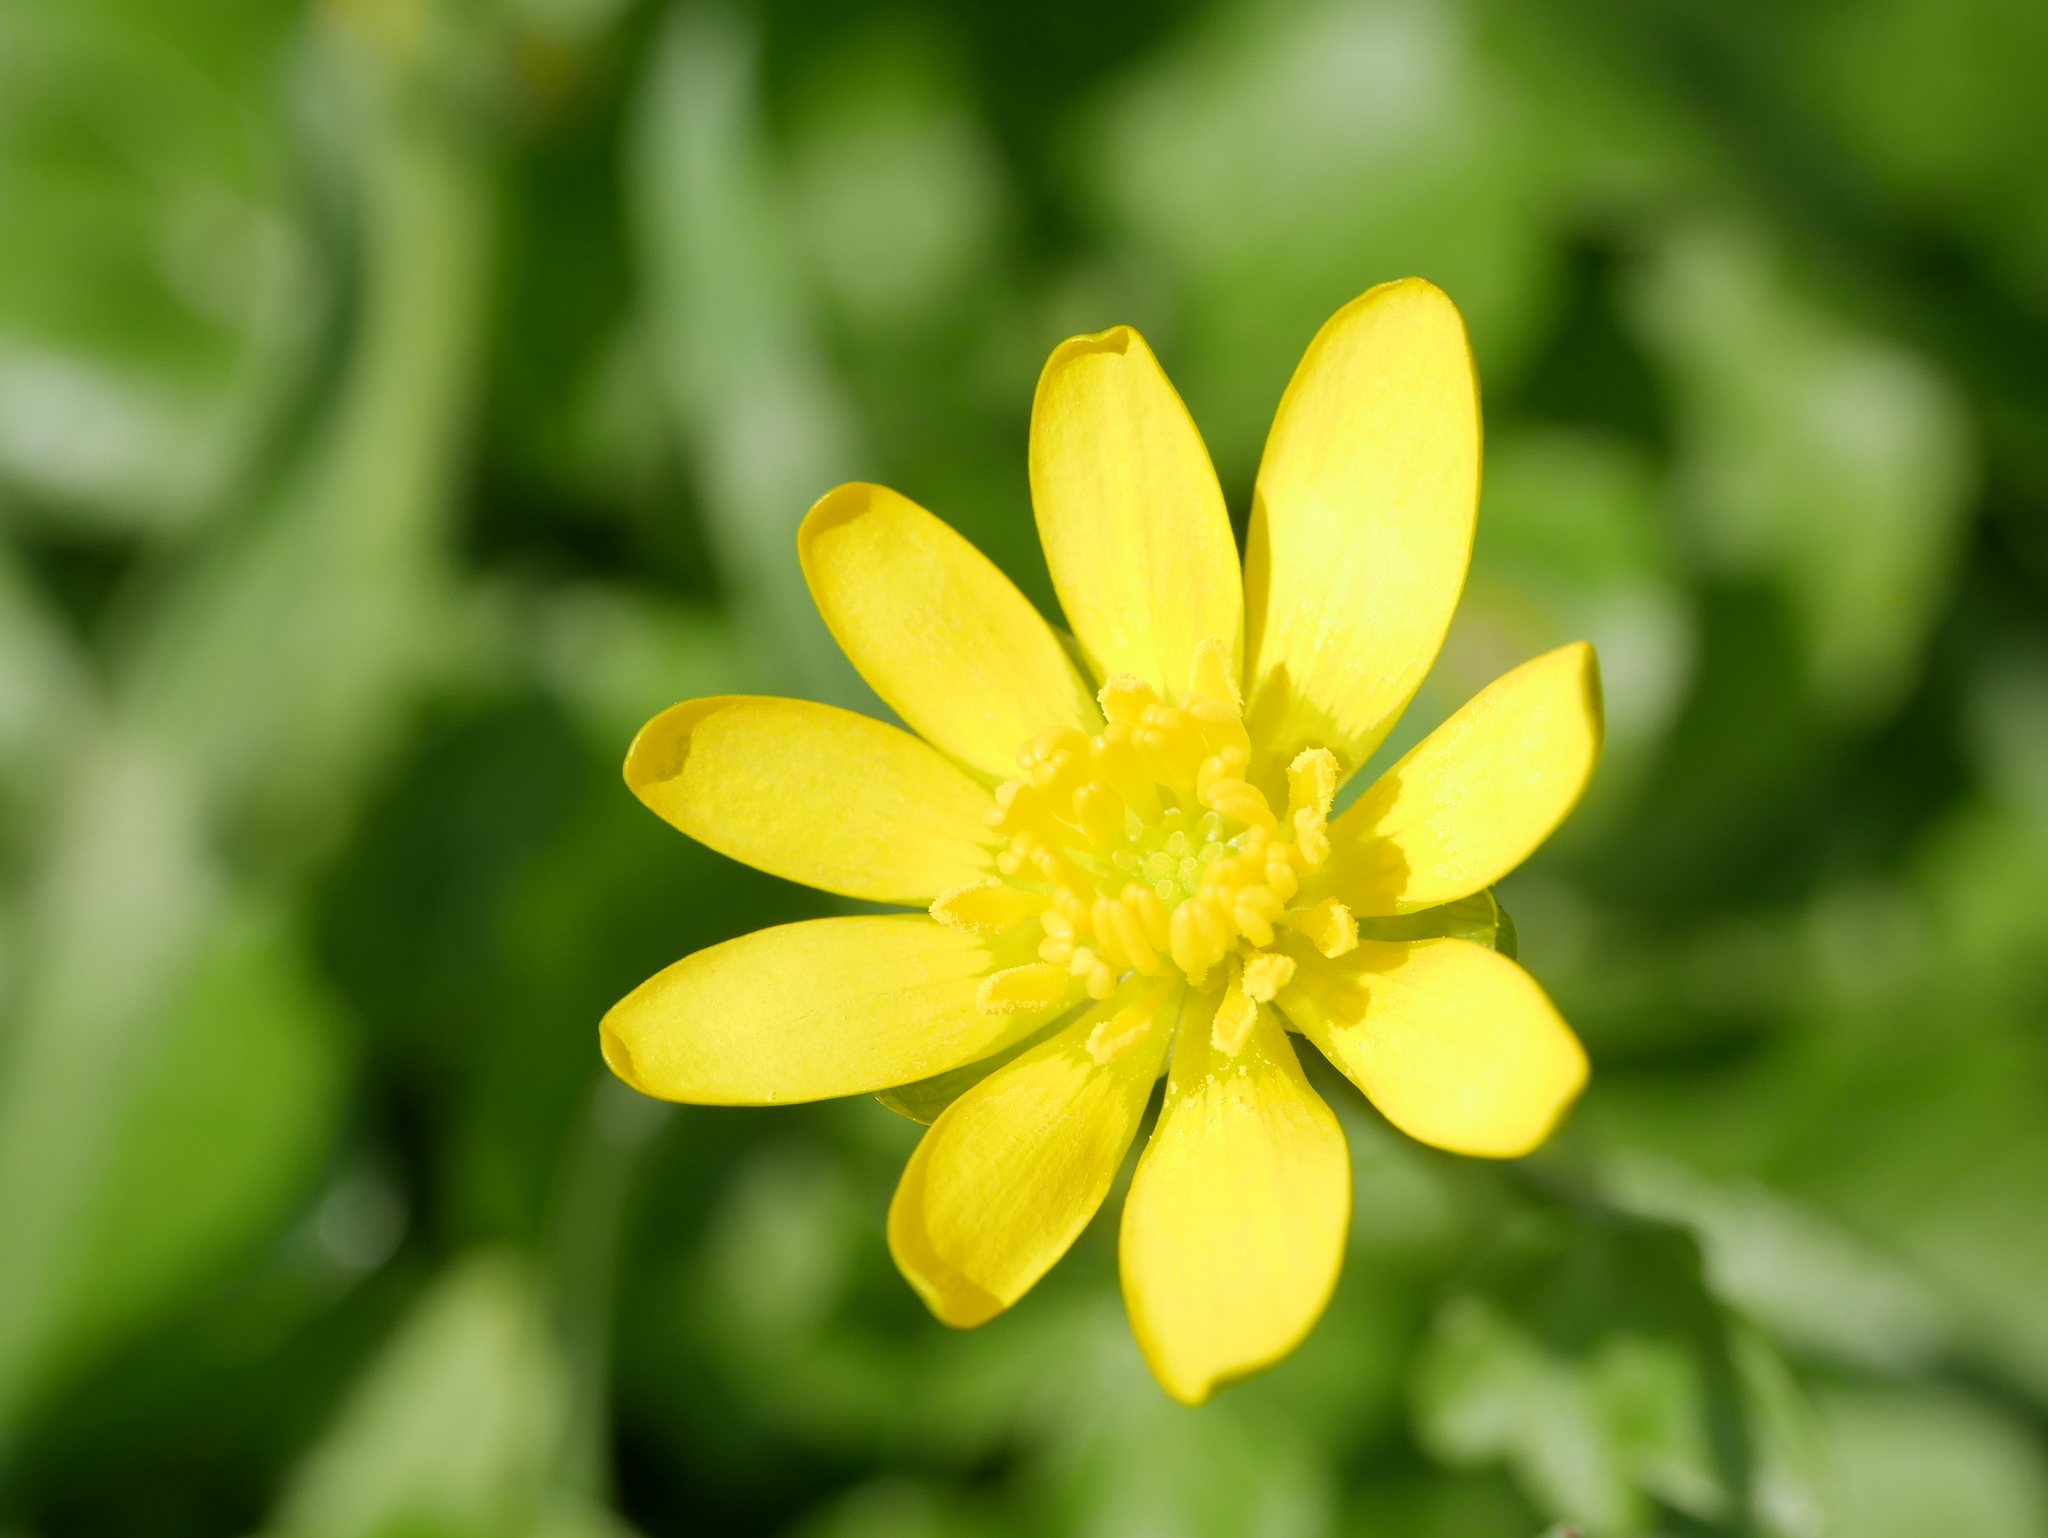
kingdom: Plantae
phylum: Tracheophyta
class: Magnoliopsida
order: Ranunculales
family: Ranunculaceae
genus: Ficaria
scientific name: Ficaria verna
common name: Lesser celandine
